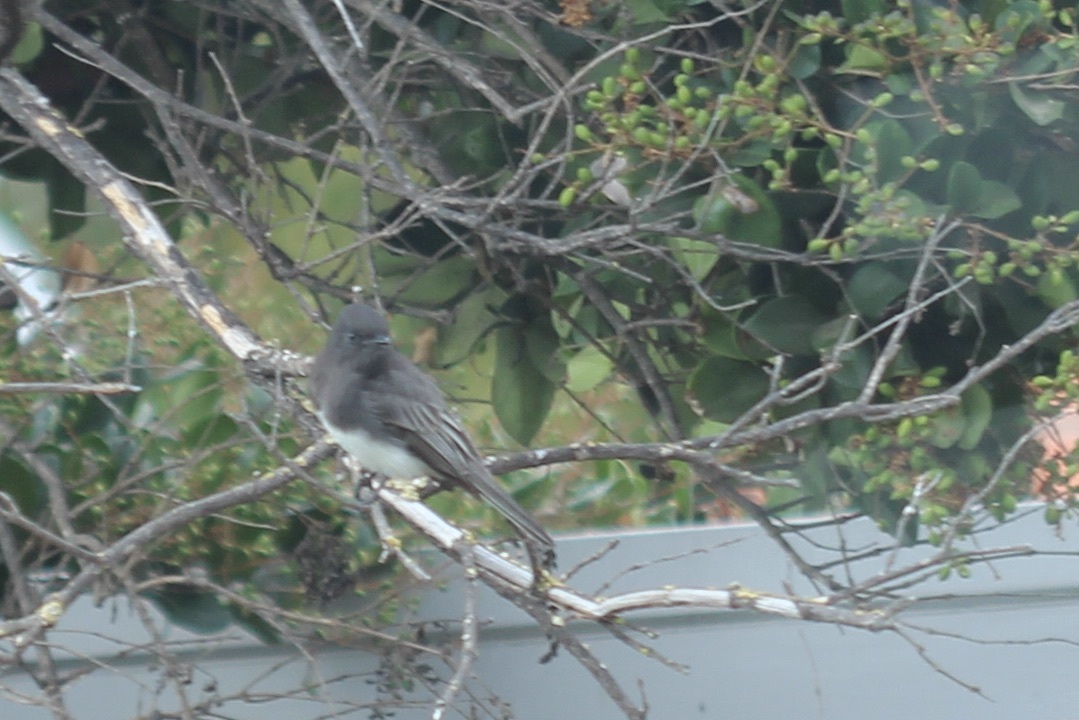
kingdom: Animalia
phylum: Chordata
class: Aves
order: Passeriformes
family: Tyrannidae
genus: Sayornis
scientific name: Sayornis nigricans
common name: Black phoebe
